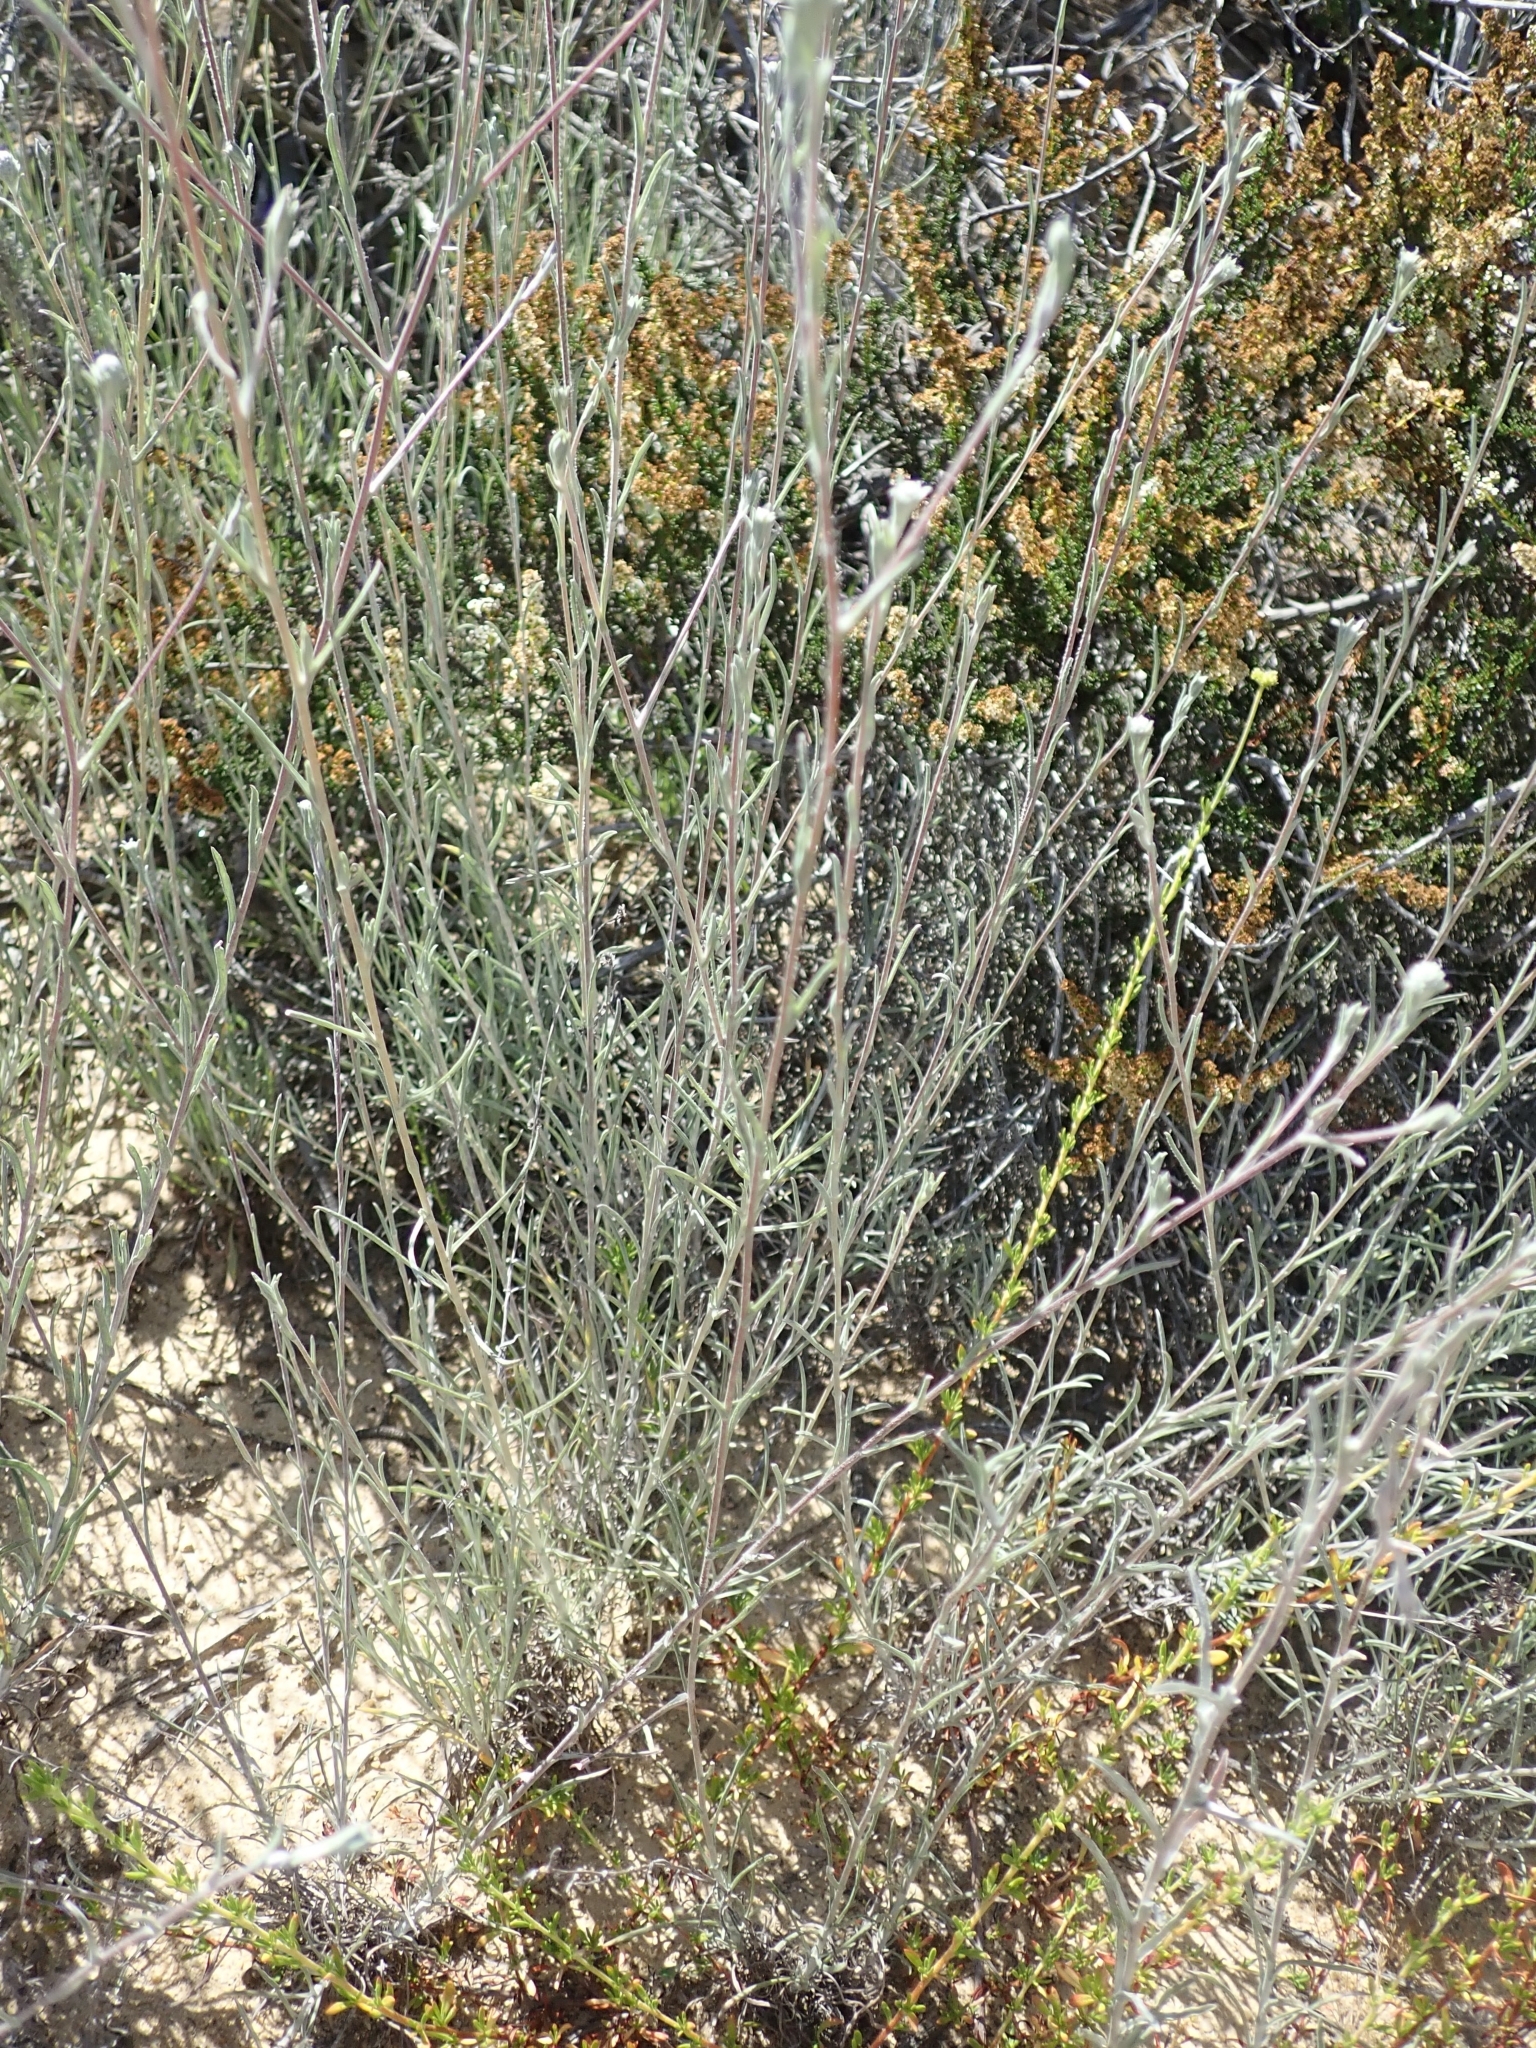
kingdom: Plantae
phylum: Tracheophyta
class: Magnoliopsida
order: Asterales
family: Asteraceae
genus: Corethrogyne
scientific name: Corethrogyne filaginifolia
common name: Sand-aster
